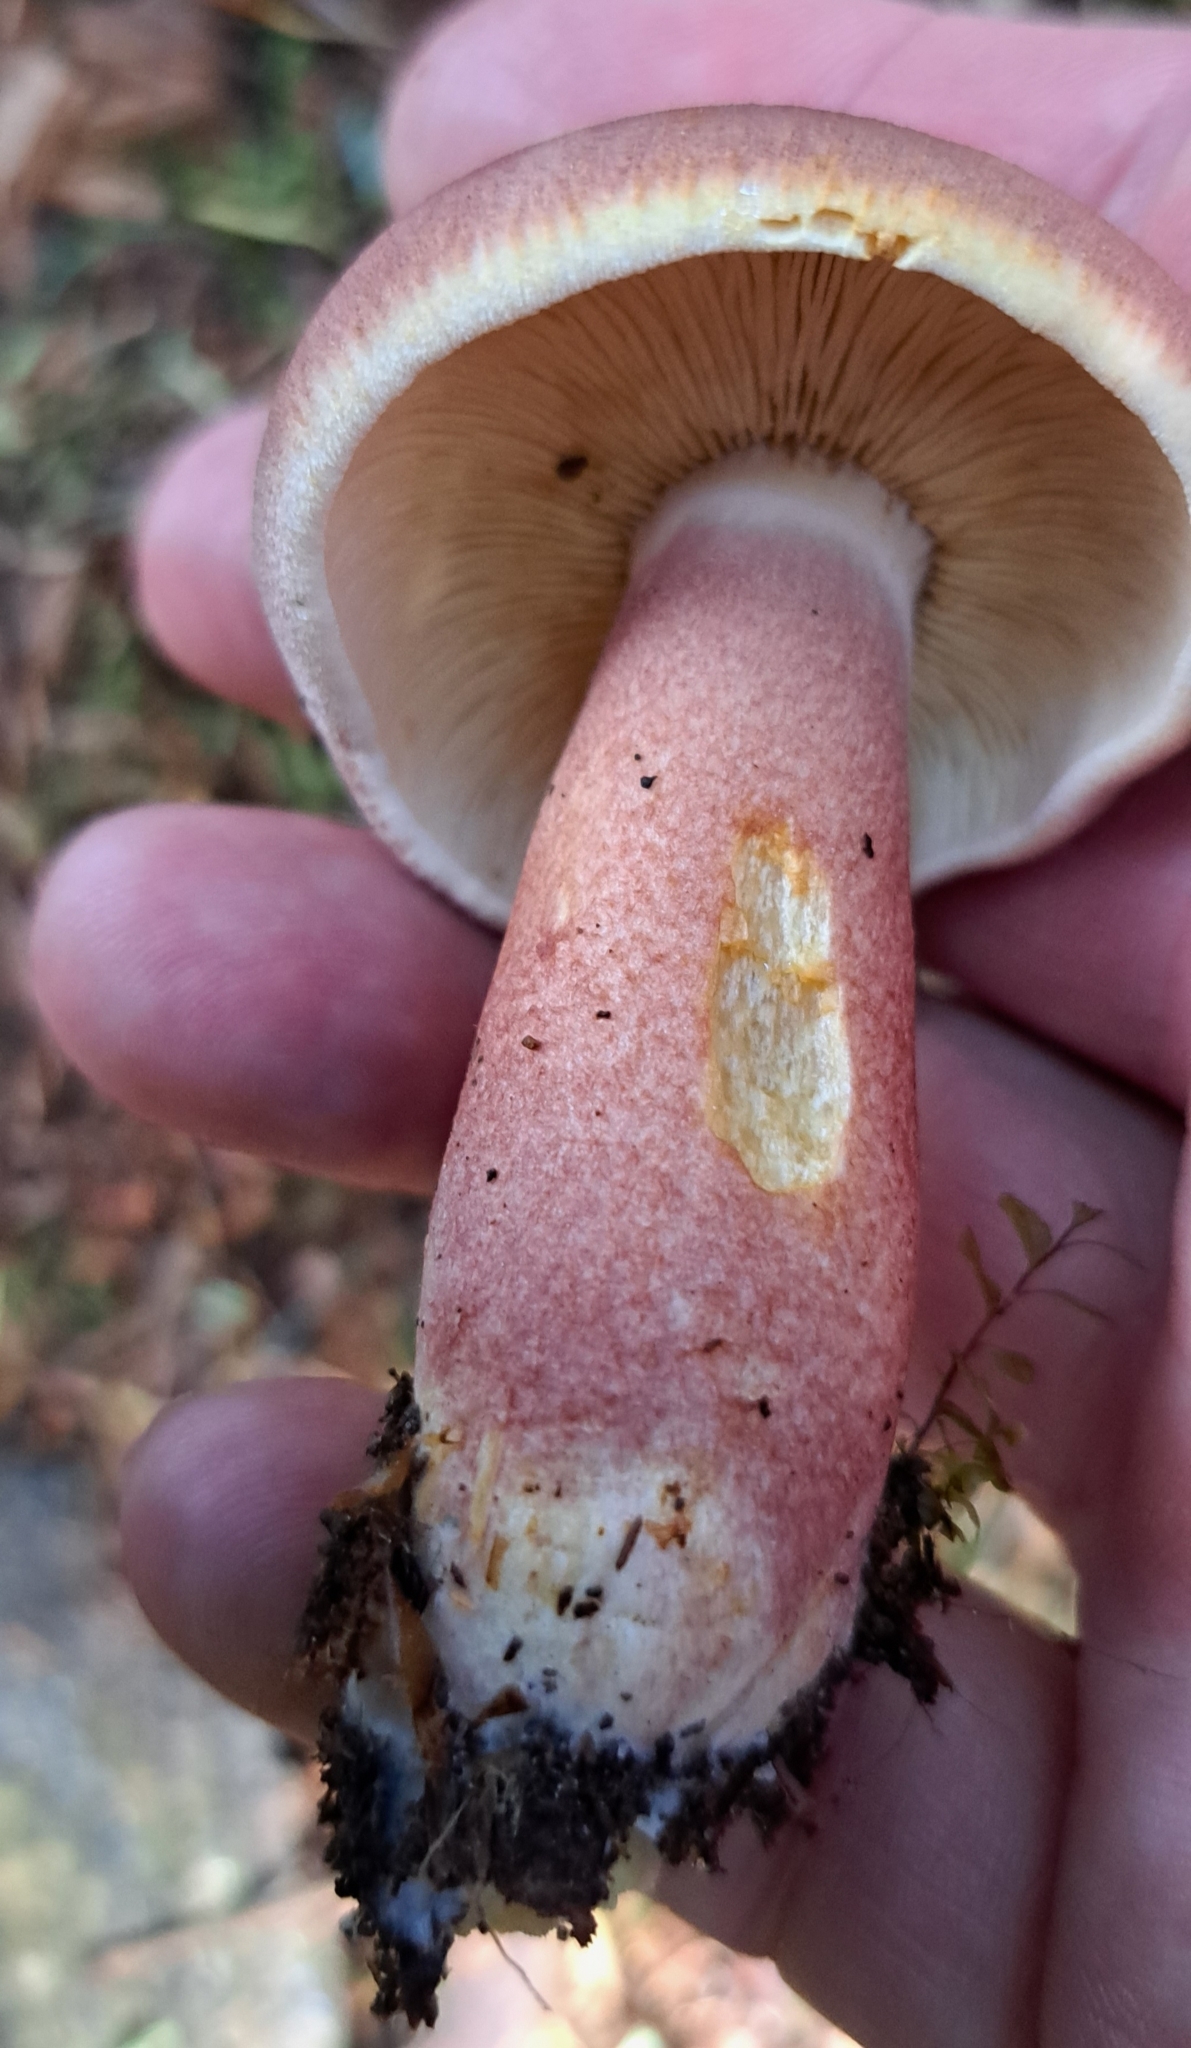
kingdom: Fungi
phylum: Basidiomycota
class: Agaricomycetes
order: Agaricales
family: Tricholomataceae
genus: Tricholomopsis
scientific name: Tricholomopsis rutilans
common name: Plums and custard
